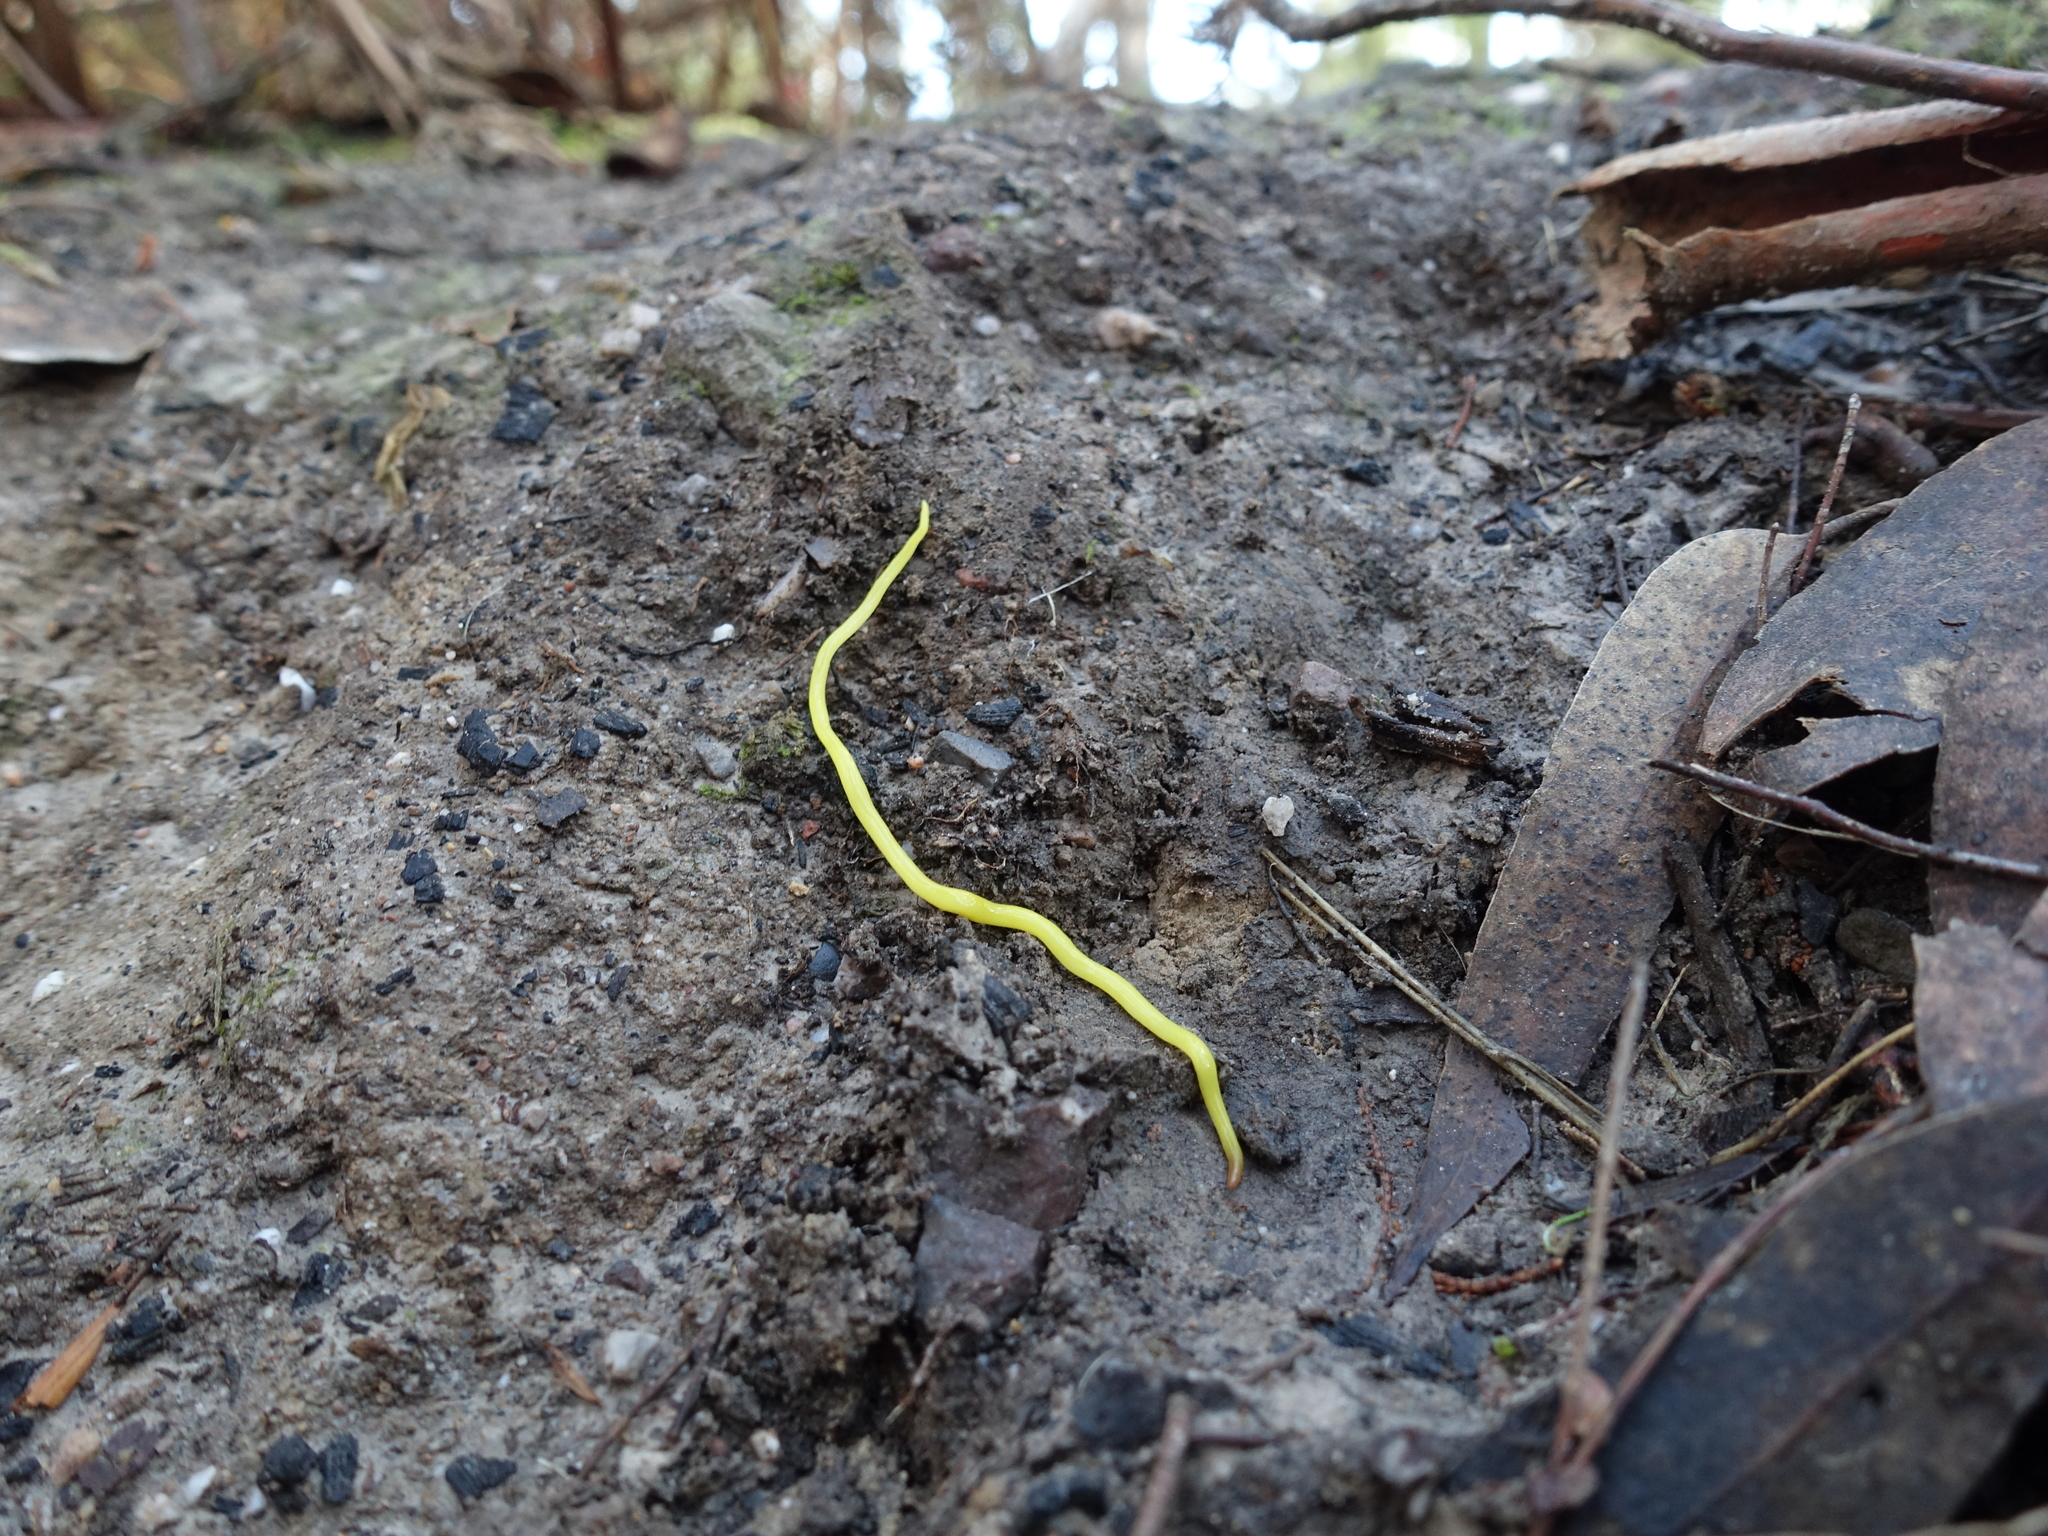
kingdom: Animalia
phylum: Platyhelminthes
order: Tricladida
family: Geoplanidae
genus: Fletchamia
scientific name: Fletchamia sugdeni
